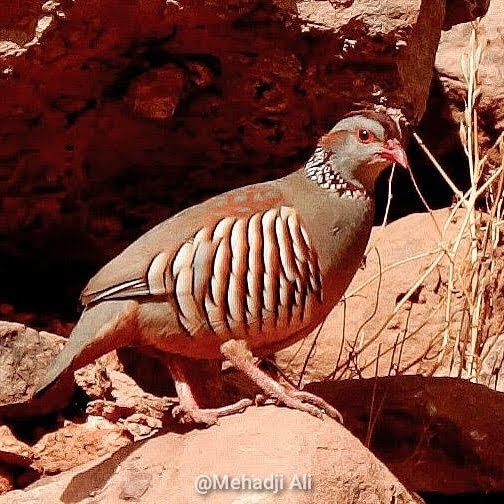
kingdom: Animalia
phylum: Chordata
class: Aves
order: Galliformes
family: Phasianidae
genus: Alectoris
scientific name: Alectoris barbara
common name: Barbary partridge
